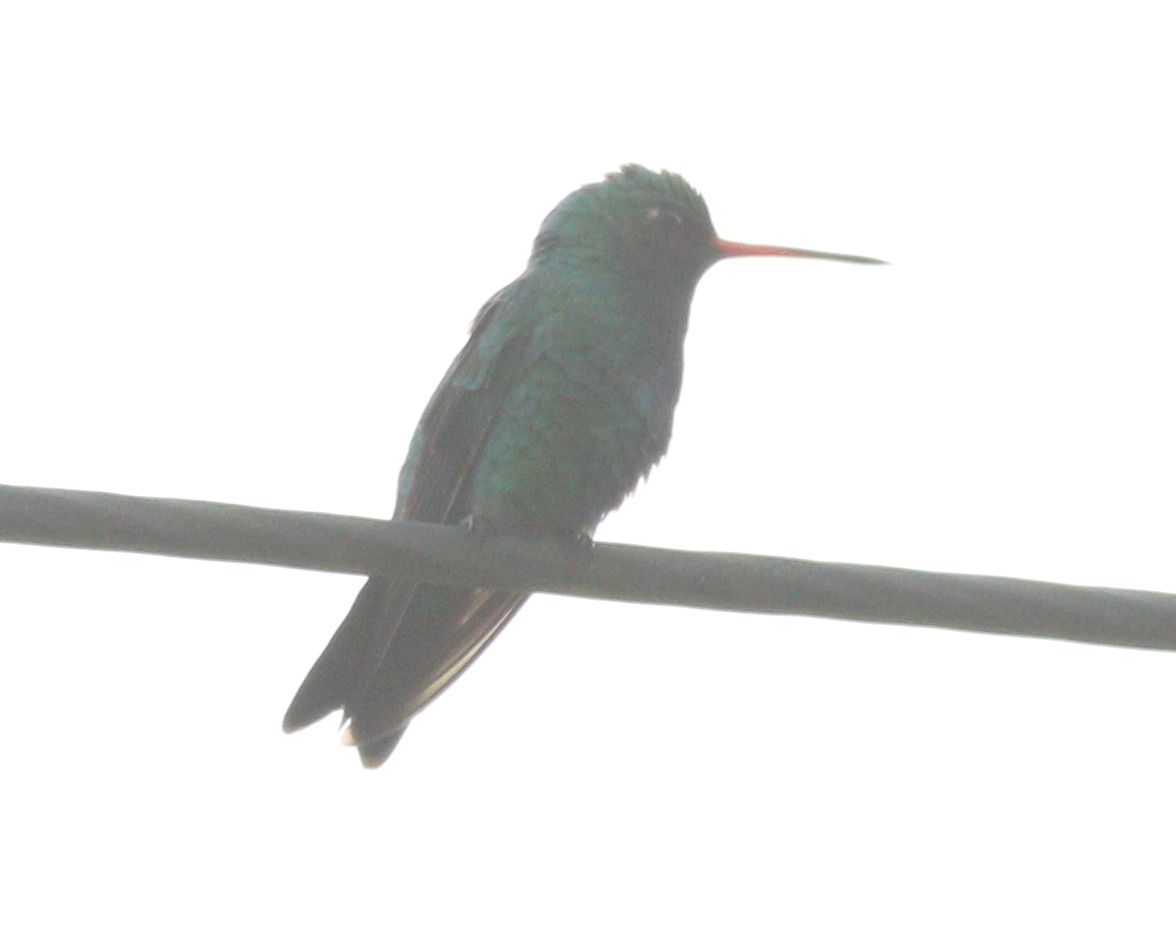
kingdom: Animalia
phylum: Chordata
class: Aves
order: Apodiformes
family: Trochilidae
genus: Chlorostilbon
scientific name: Chlorostilbon lucidus
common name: Glittering-bellied emerald
